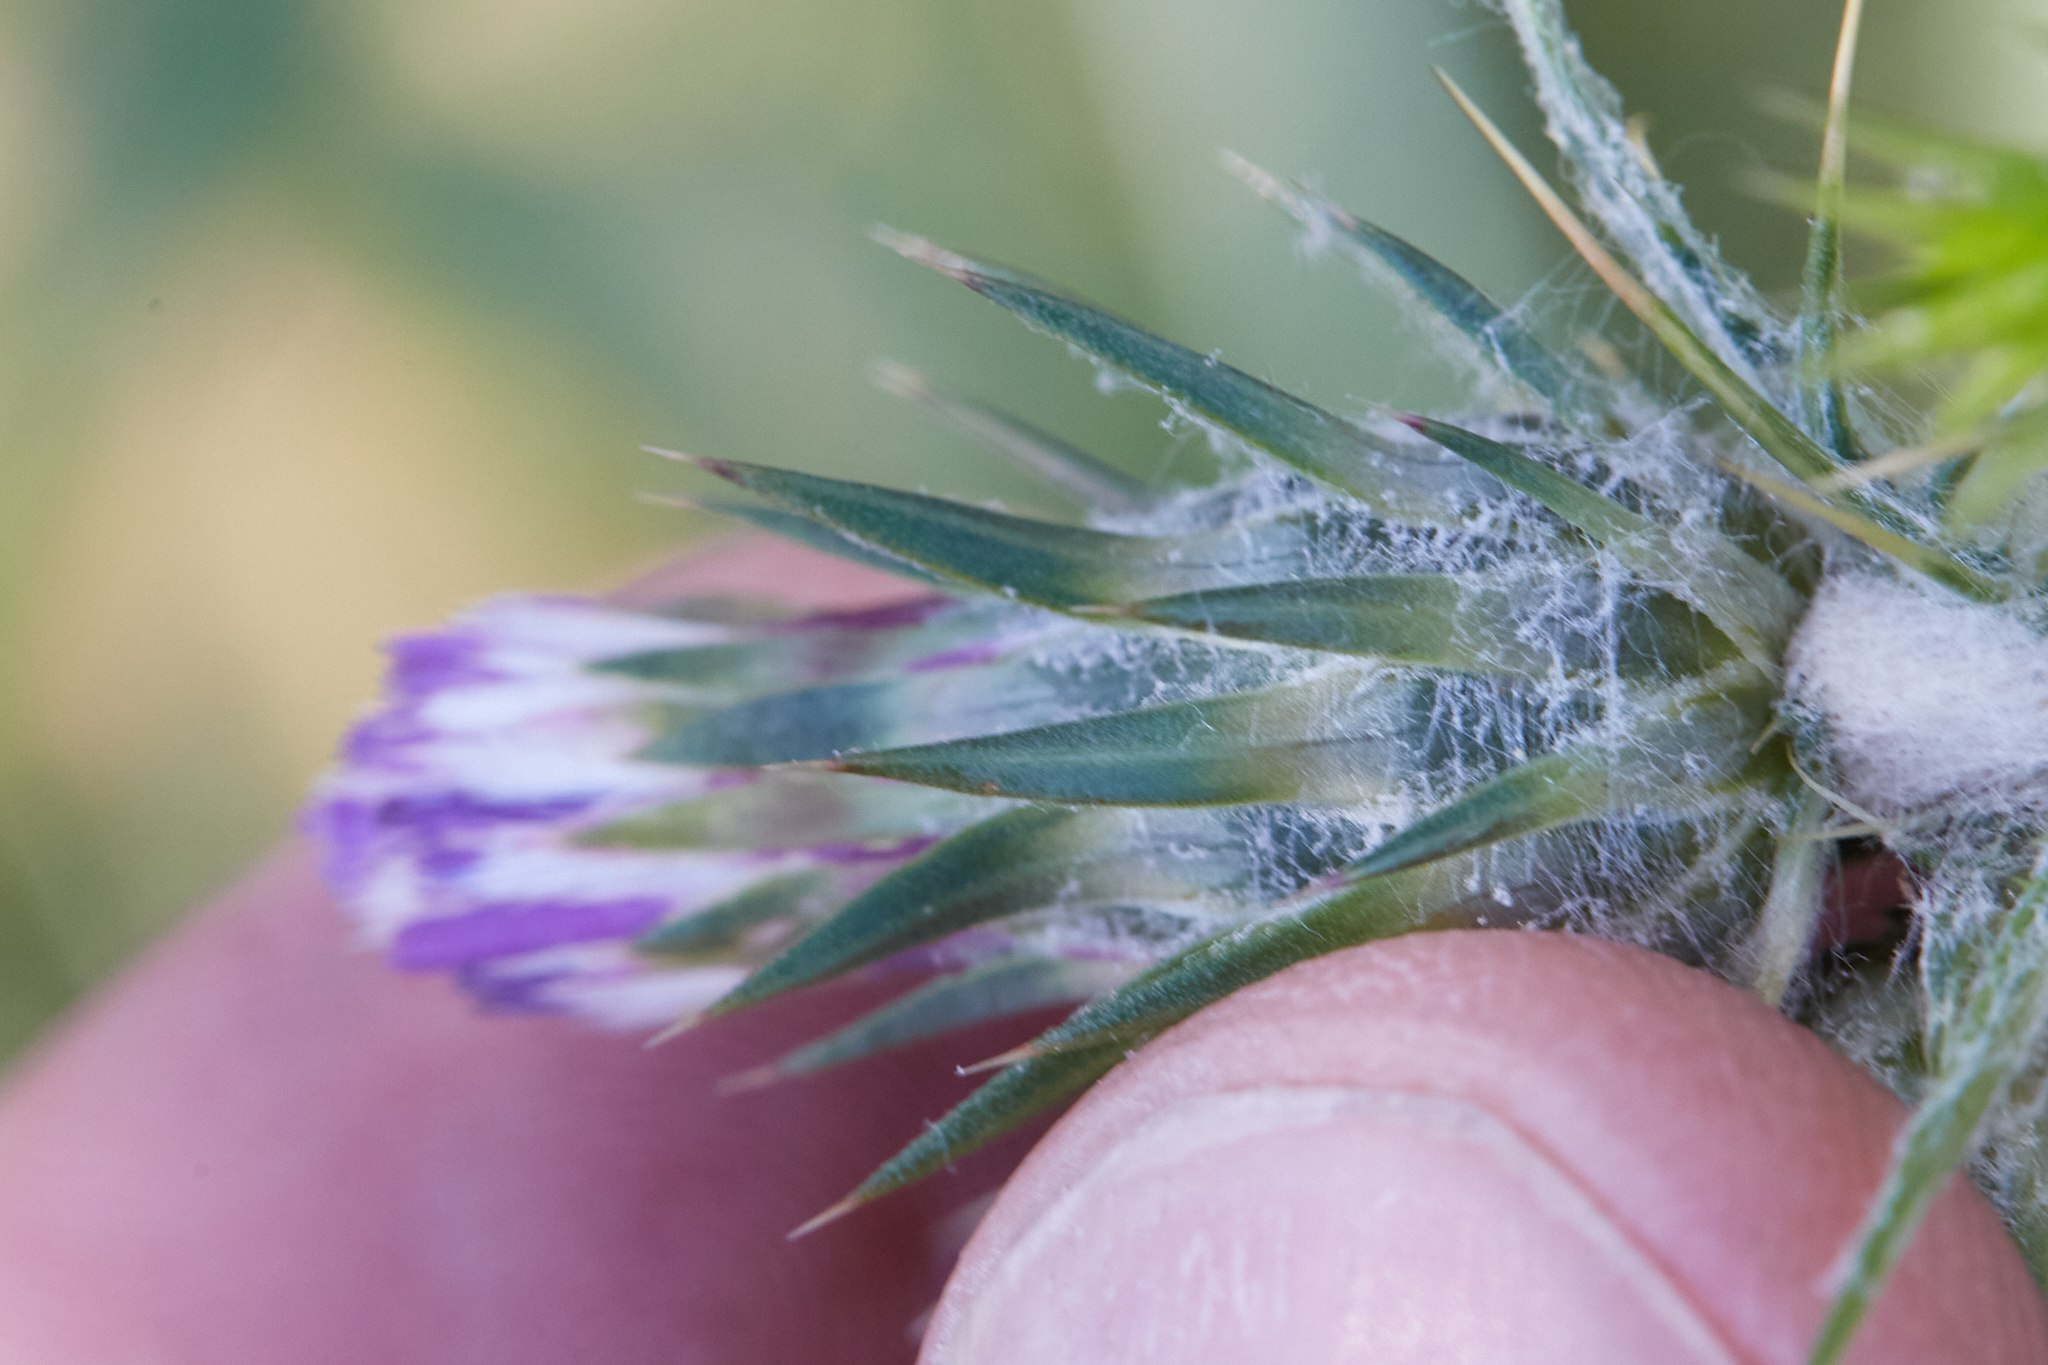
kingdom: Plantae
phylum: Tracheophyta
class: Magnoliopsida
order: Asterales
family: Asteraceae
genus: Carduus
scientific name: Carduus pycnocephalus
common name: Plymouth thistle
